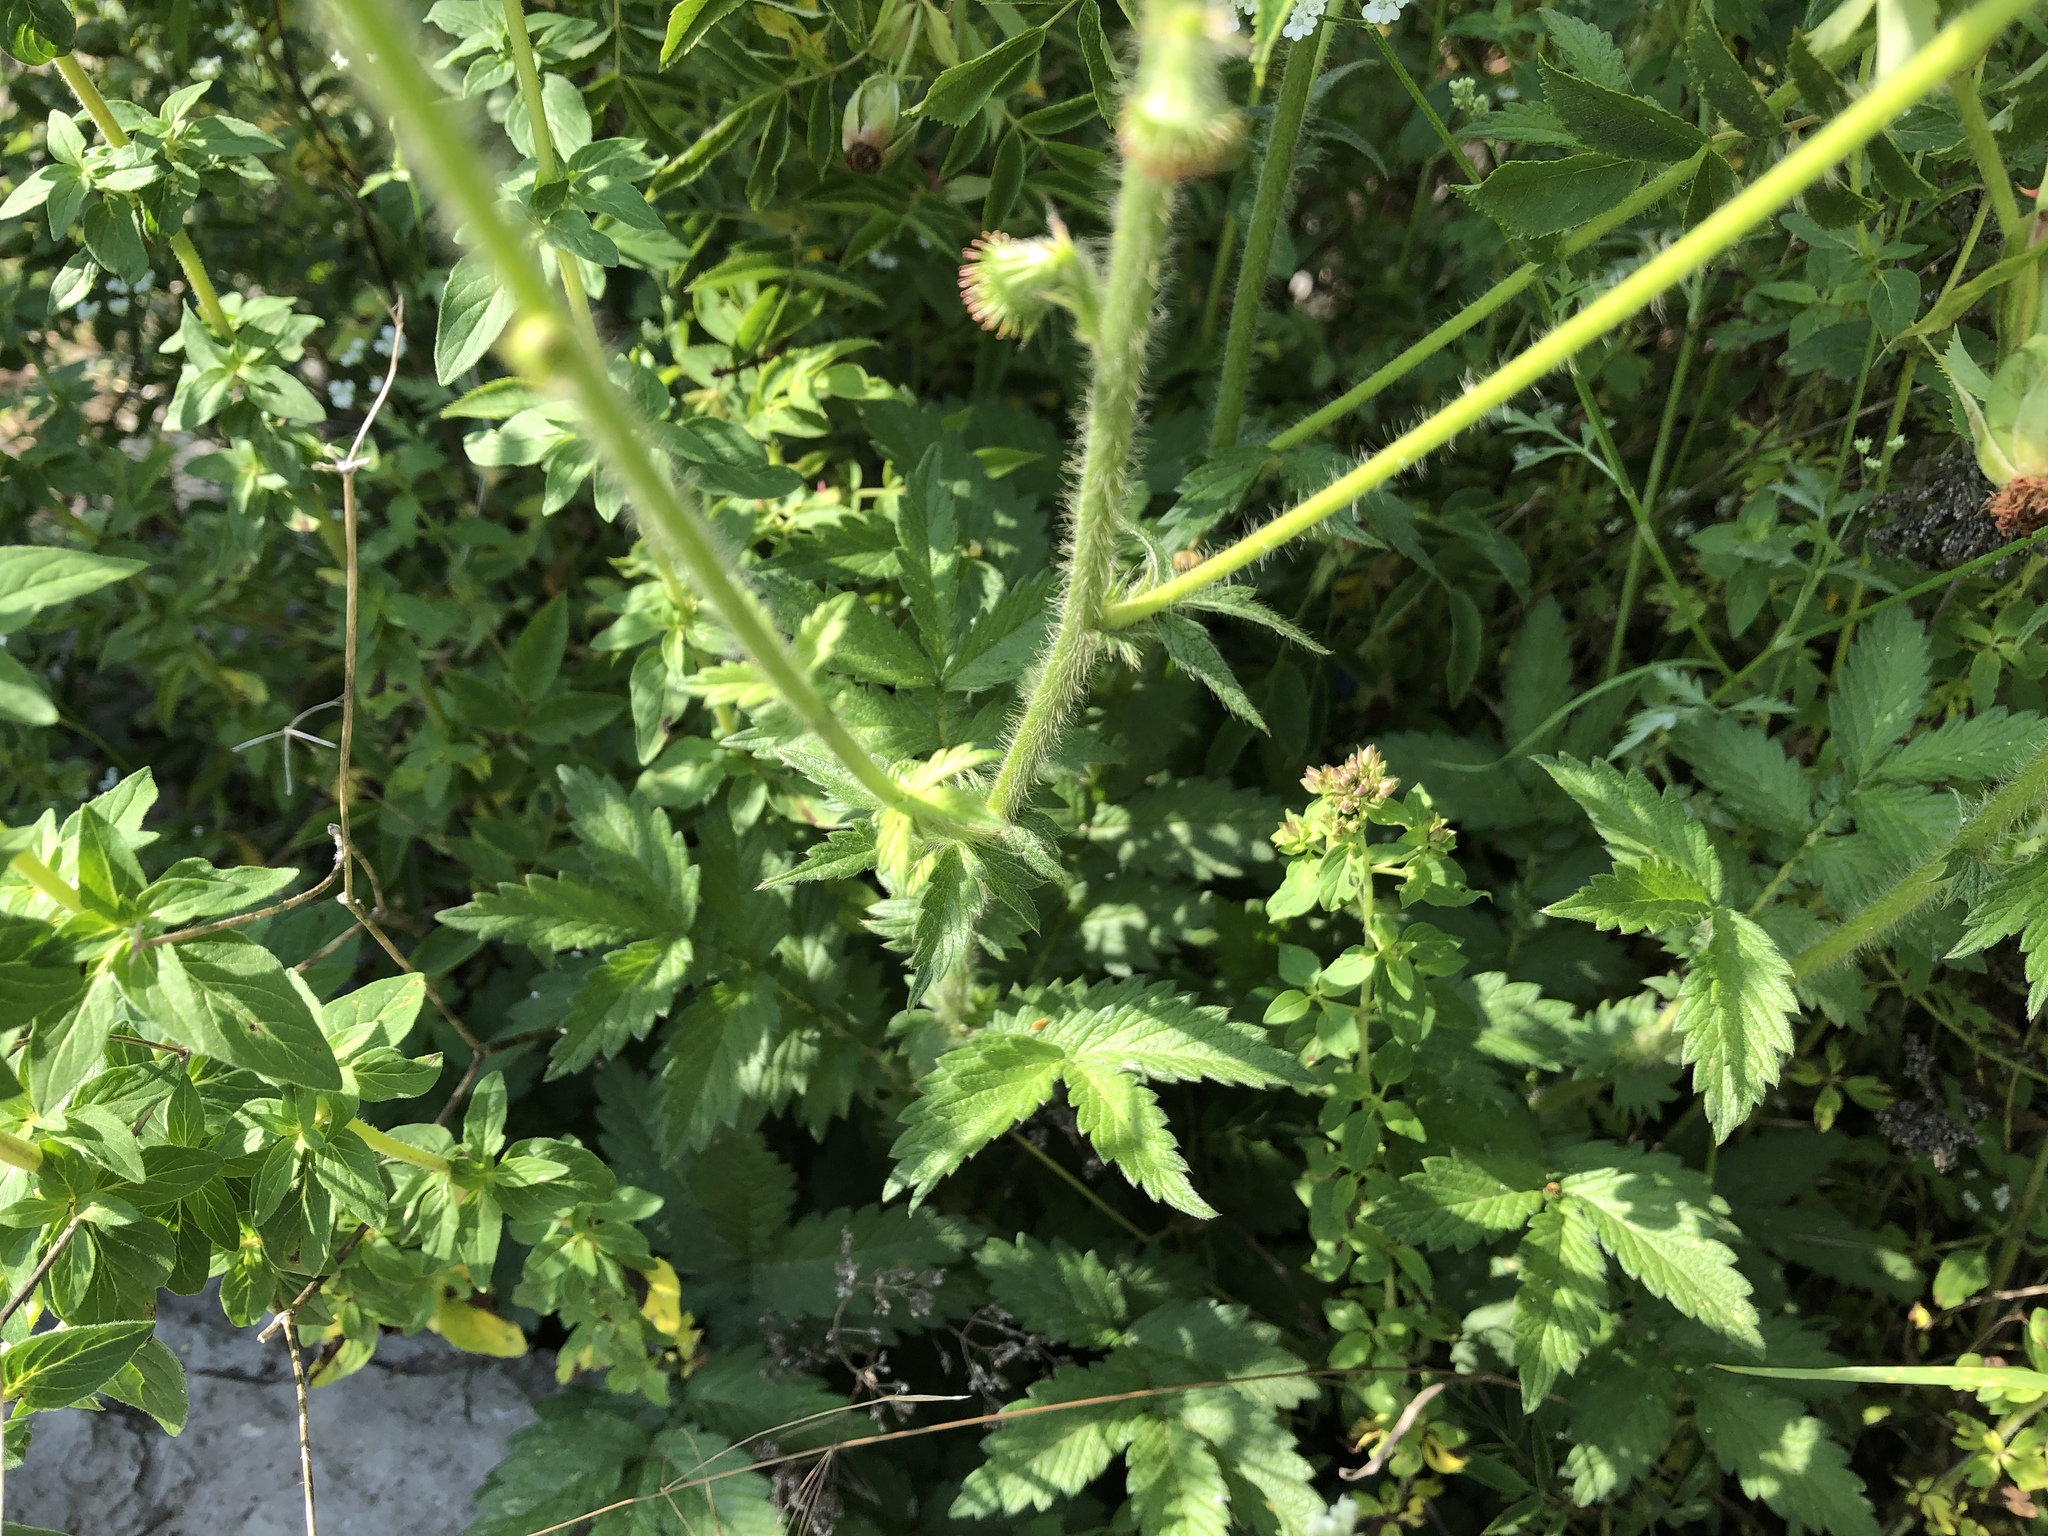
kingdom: Plantae
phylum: Tracheophyta
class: Magnoliopsida
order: Rosales
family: Rosaceae
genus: Agrimonia
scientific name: Agrimonia eupatoria
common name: Agrimony
